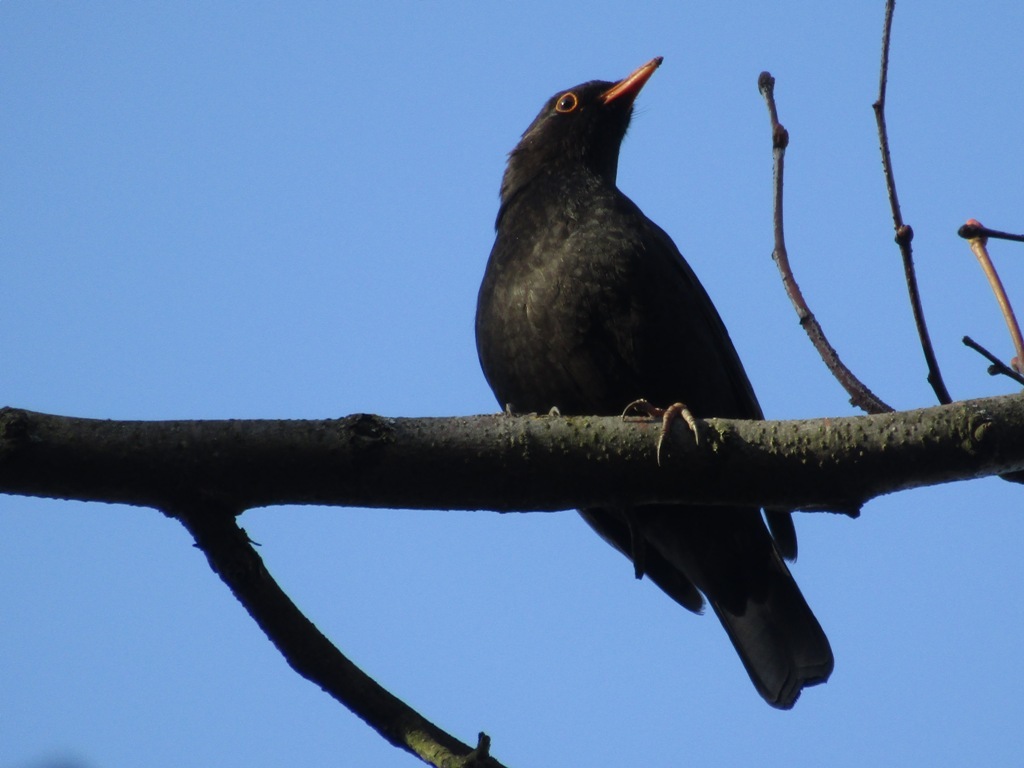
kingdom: Animalia
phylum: Chordata
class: Aves
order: Passeriformes
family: Turdidae
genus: Turdus
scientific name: Turdus merula
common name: Common blackbird
